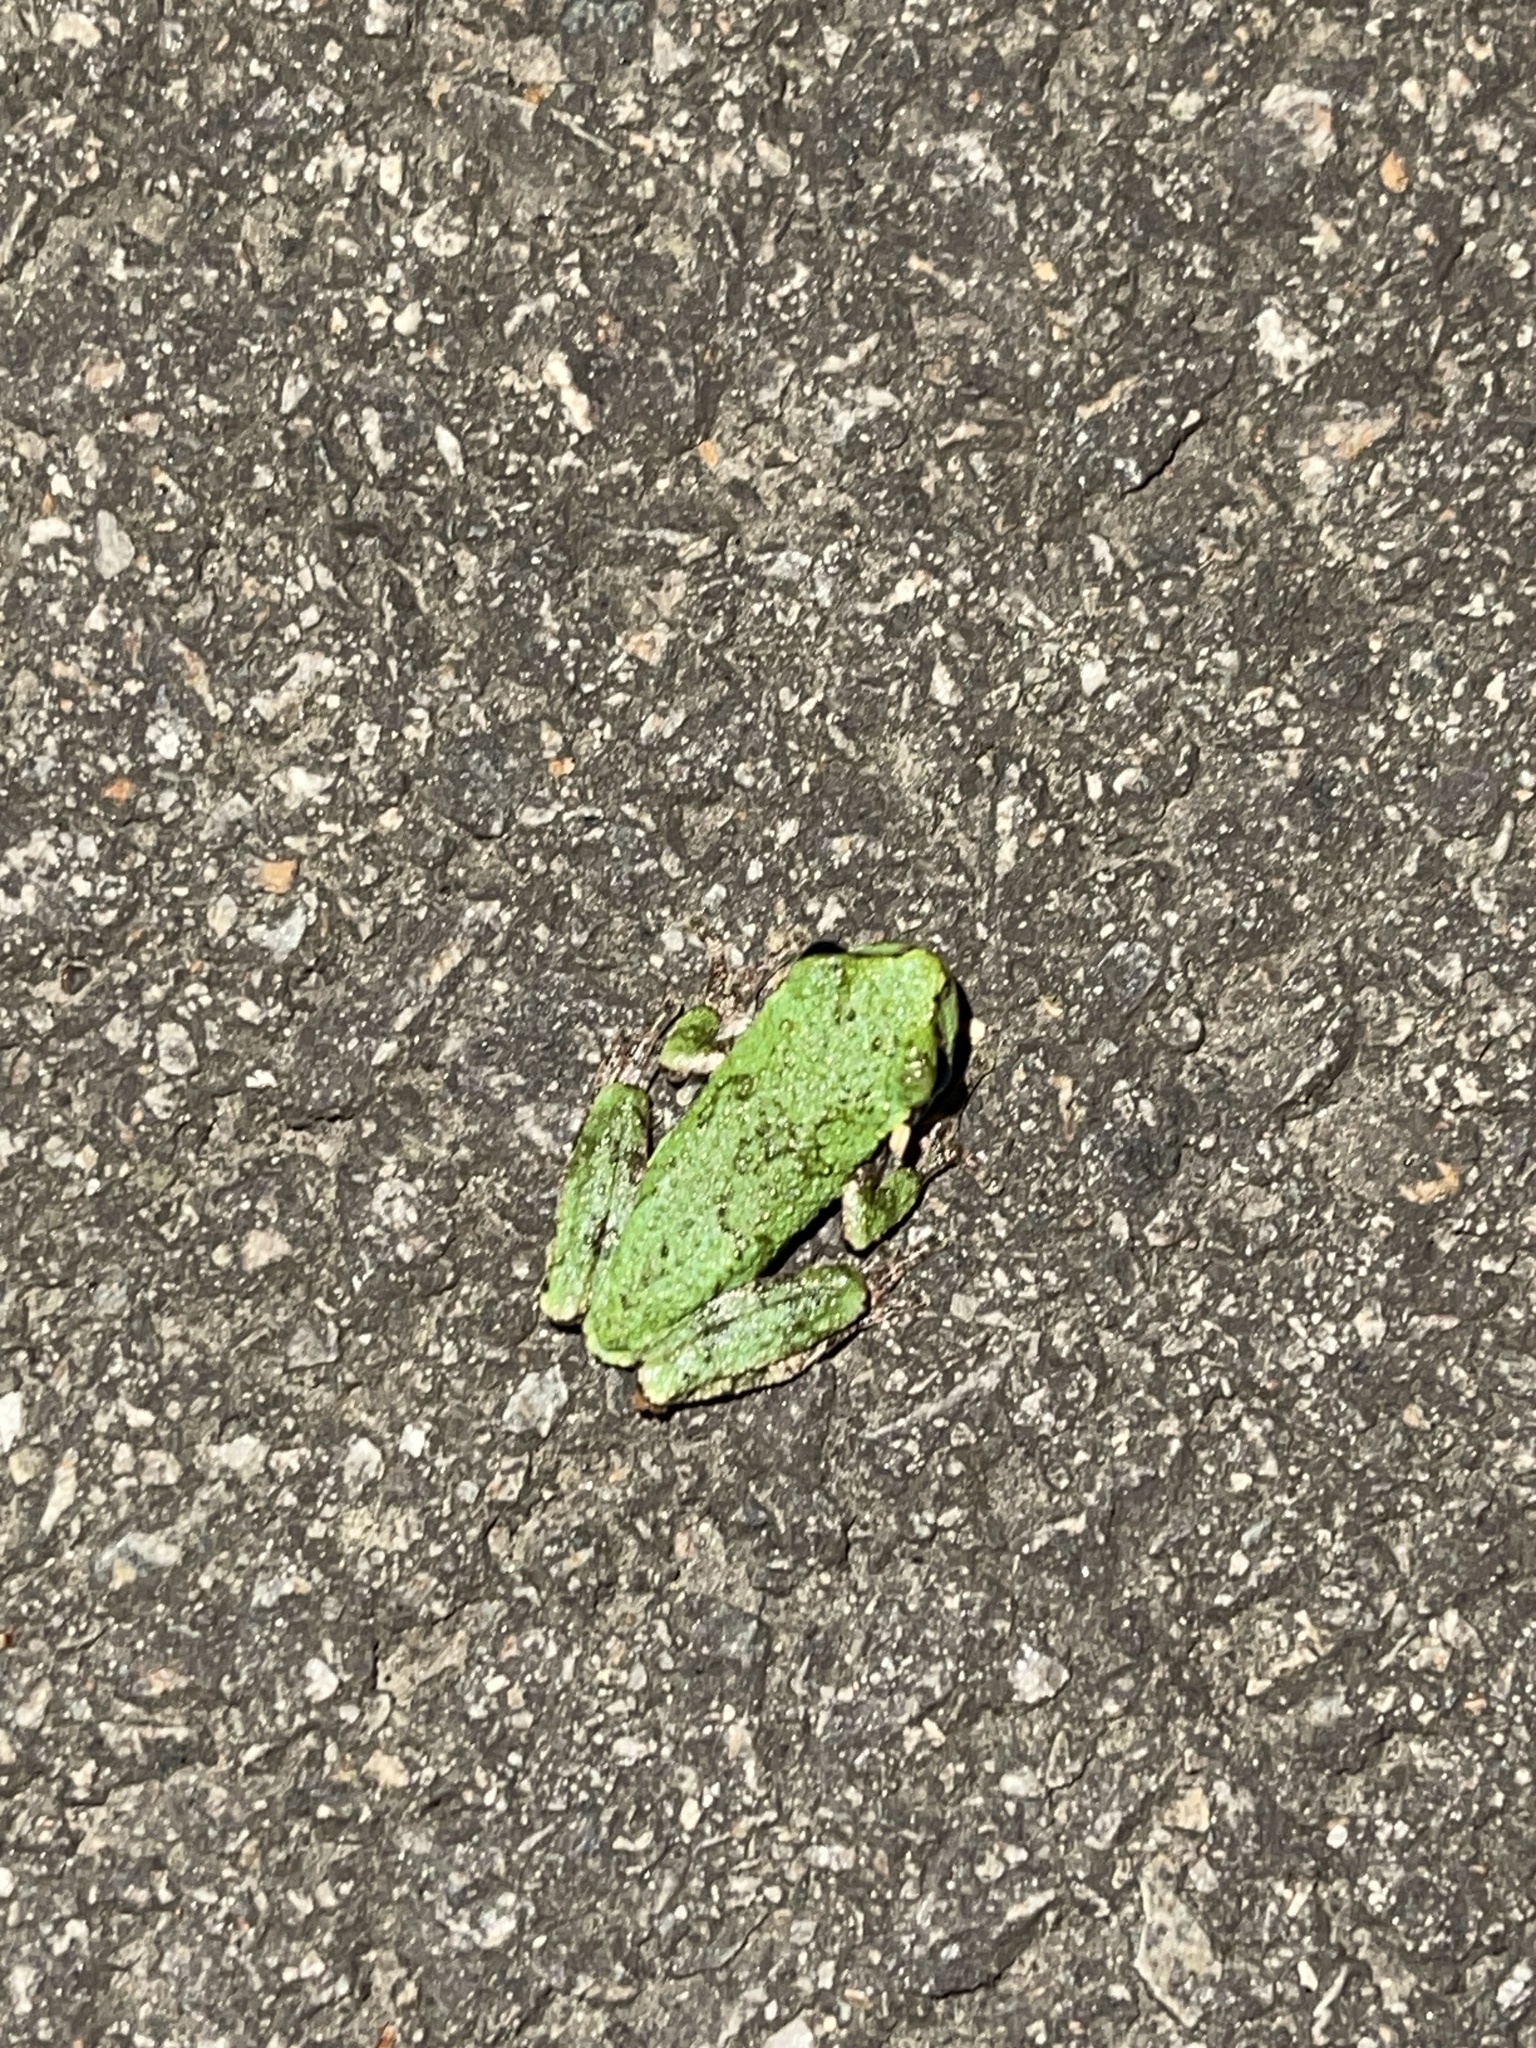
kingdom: Animalia
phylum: Chordata
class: Amphibia
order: Anura
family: Hylidae
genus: Dryophytes
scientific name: Dryophytes versicolor
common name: Gray treefrog
